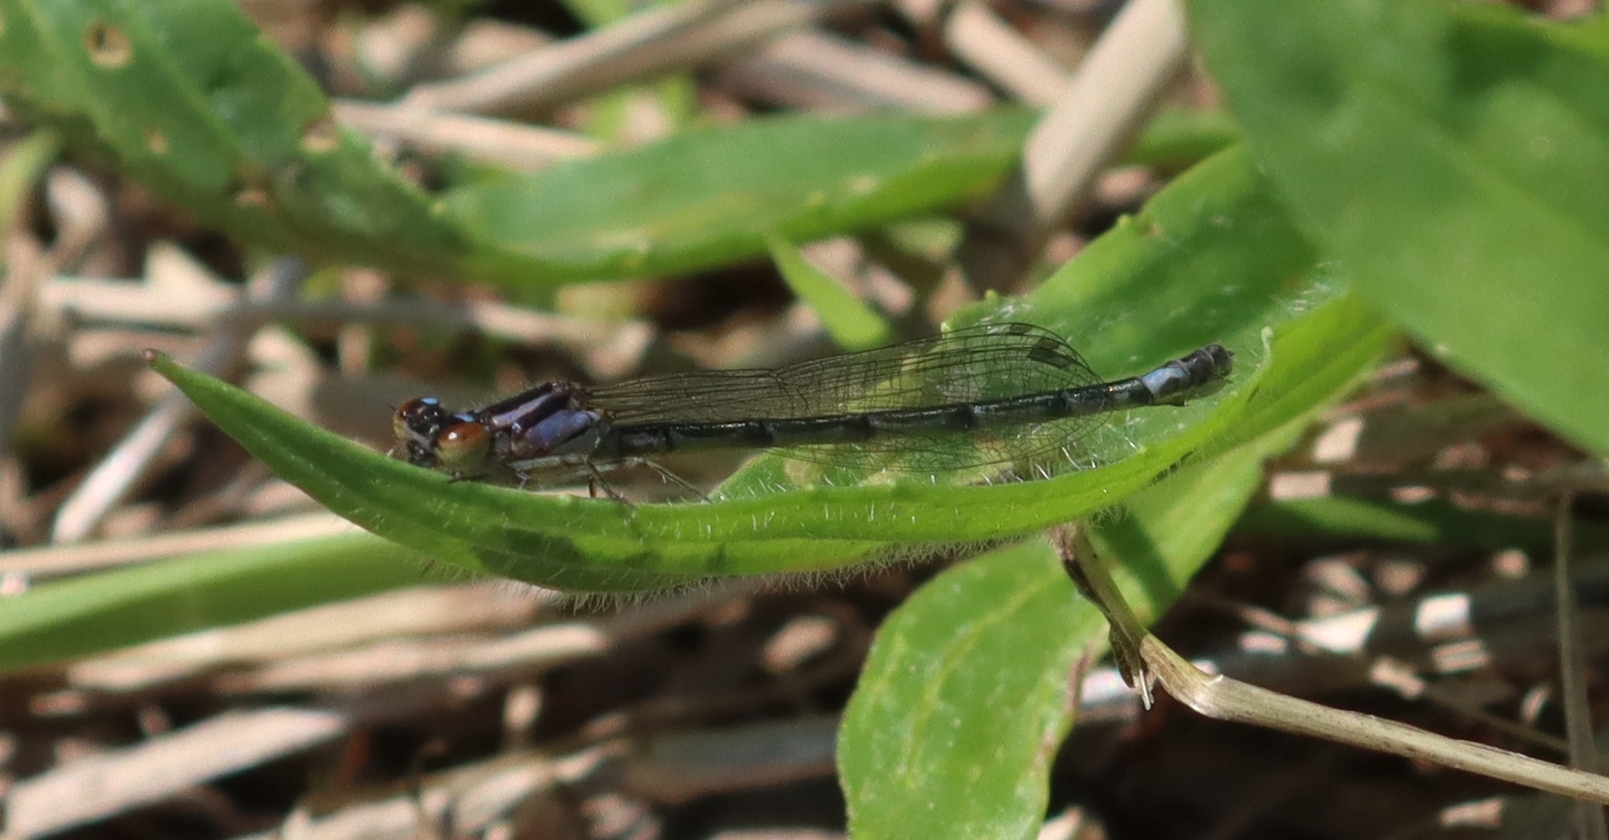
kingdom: Animalia
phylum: Arthropoda
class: Insecta
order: Odonata
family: Coenagrionidae
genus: Enallagma
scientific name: Enallagma geminatum
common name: Skimming bluet
